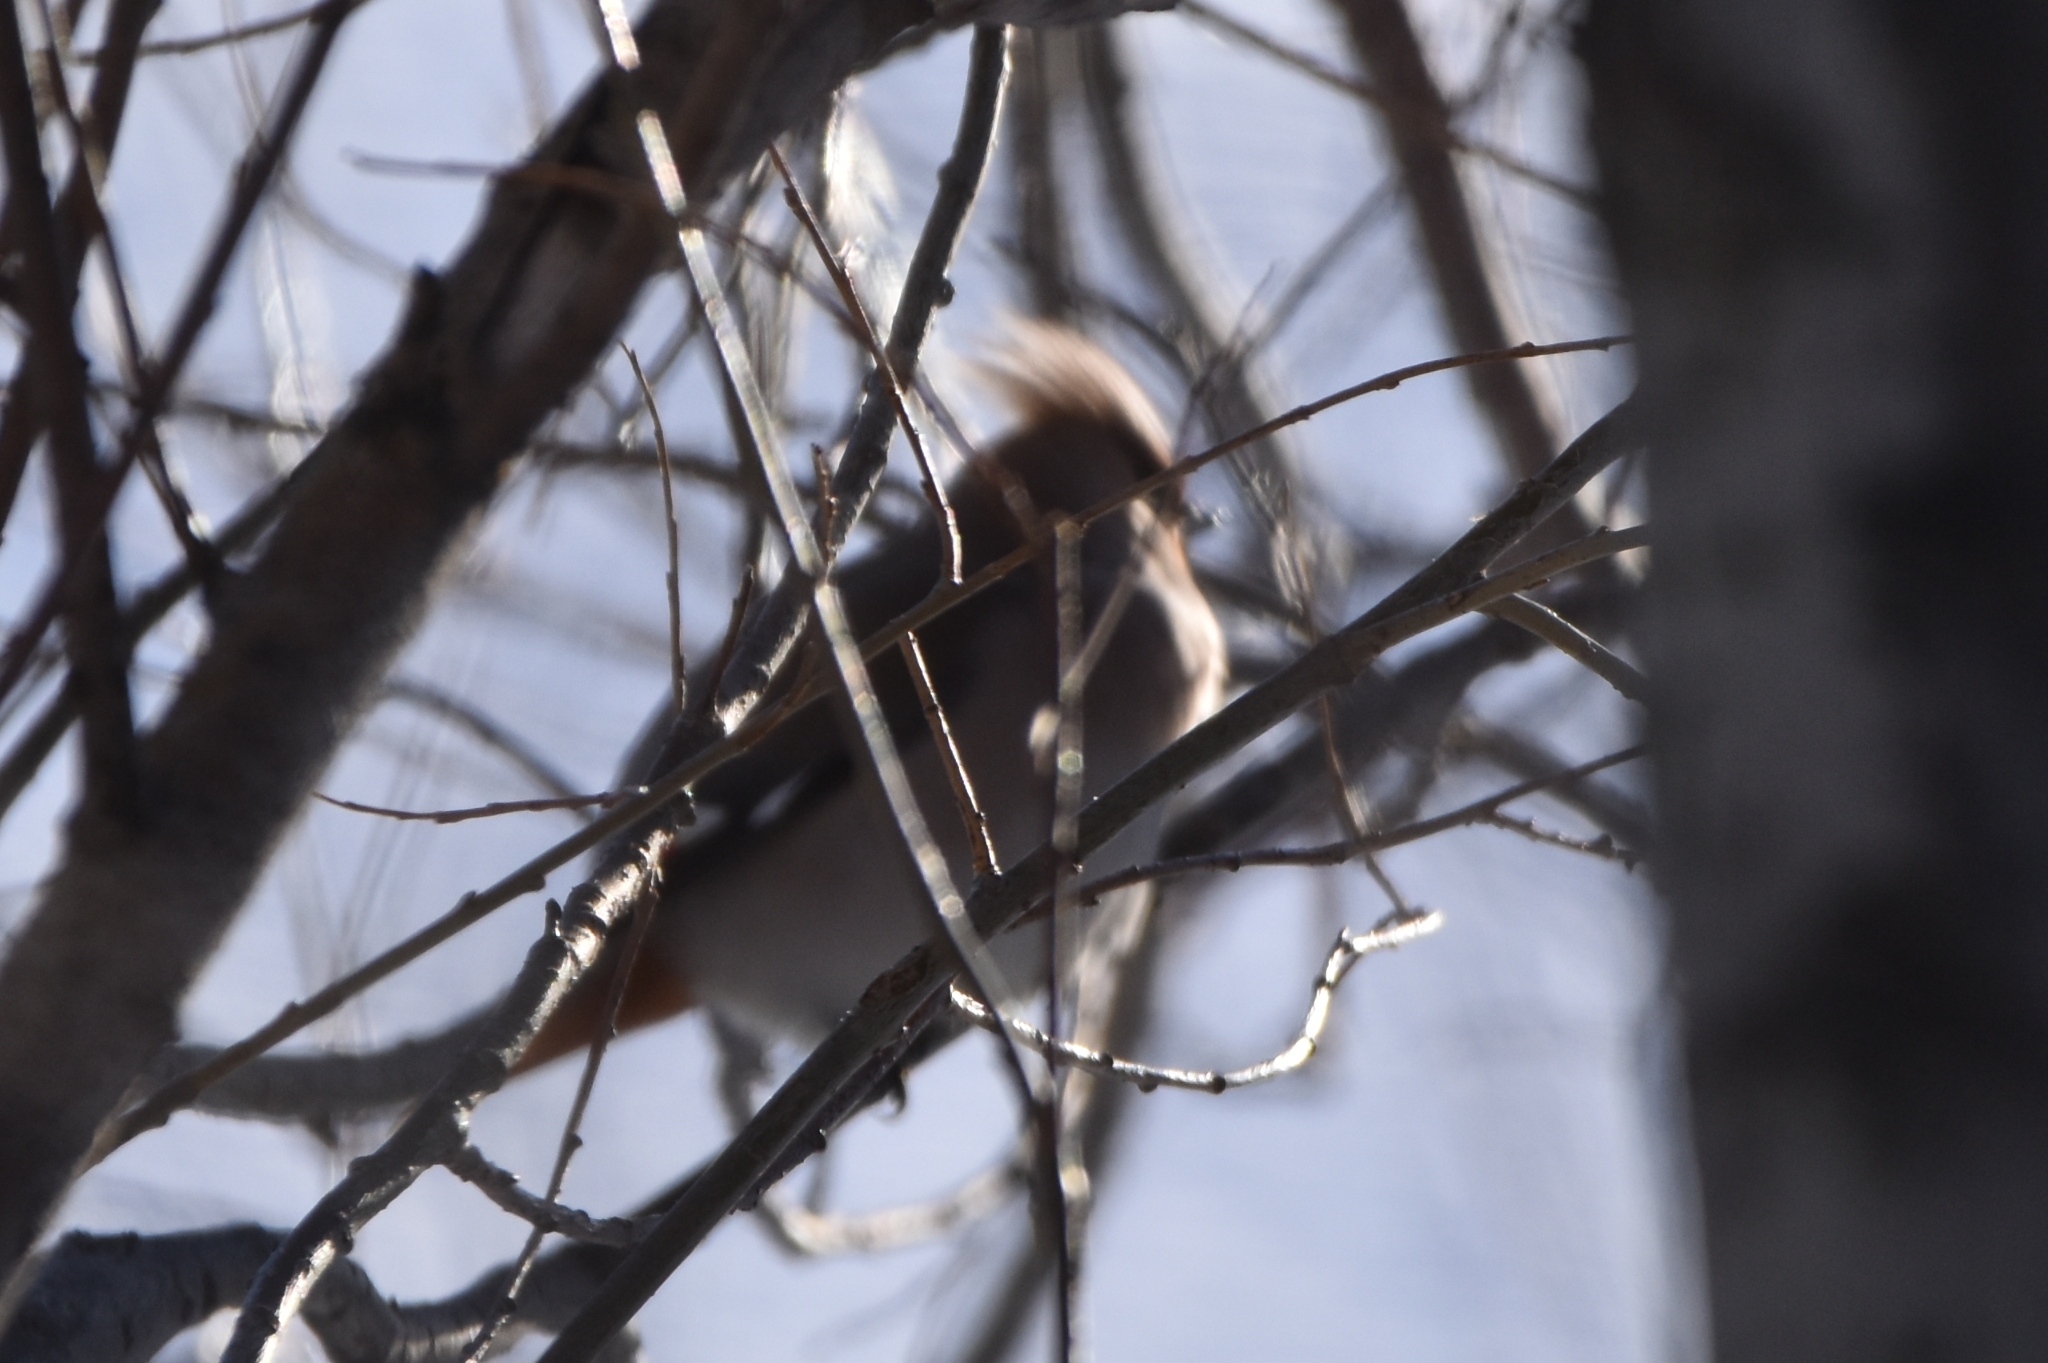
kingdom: Animalia
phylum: Chordata
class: Aves
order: Passeriformes
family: Bombycillidae
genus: Bombycilla
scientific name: Bombycilla garrulus
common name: Bohemian waxwing
